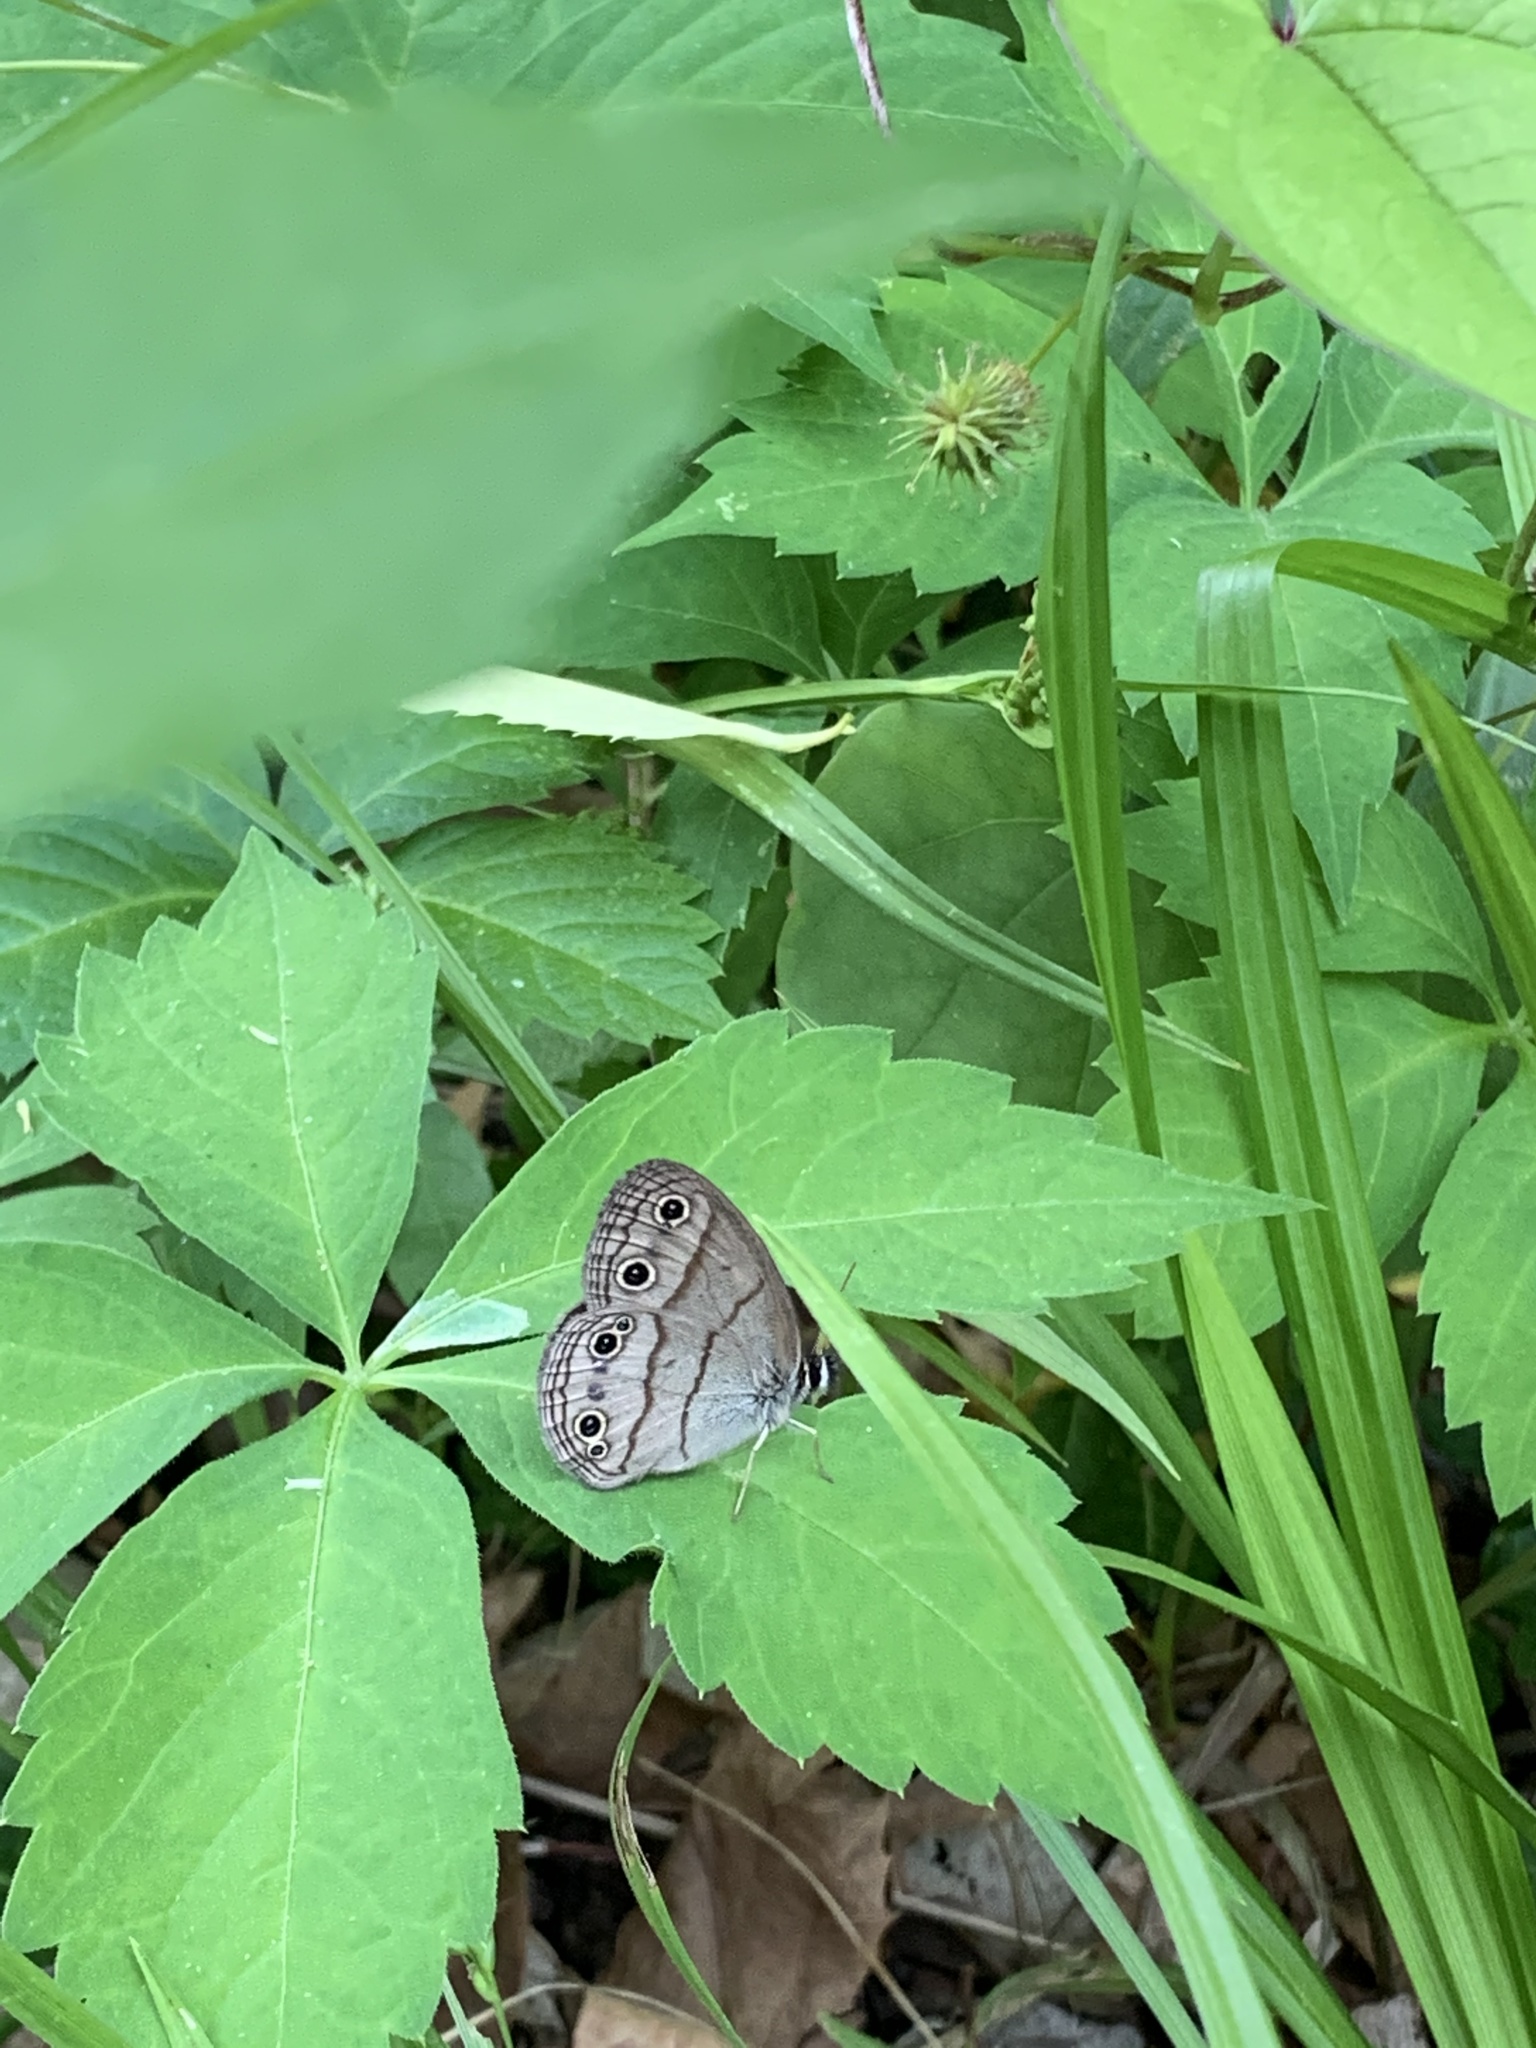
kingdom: Animalia
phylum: Arthropoda
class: Insecta
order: Lepidoptera
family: Nymphalidae
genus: Euptychia
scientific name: Euptychia cymela
